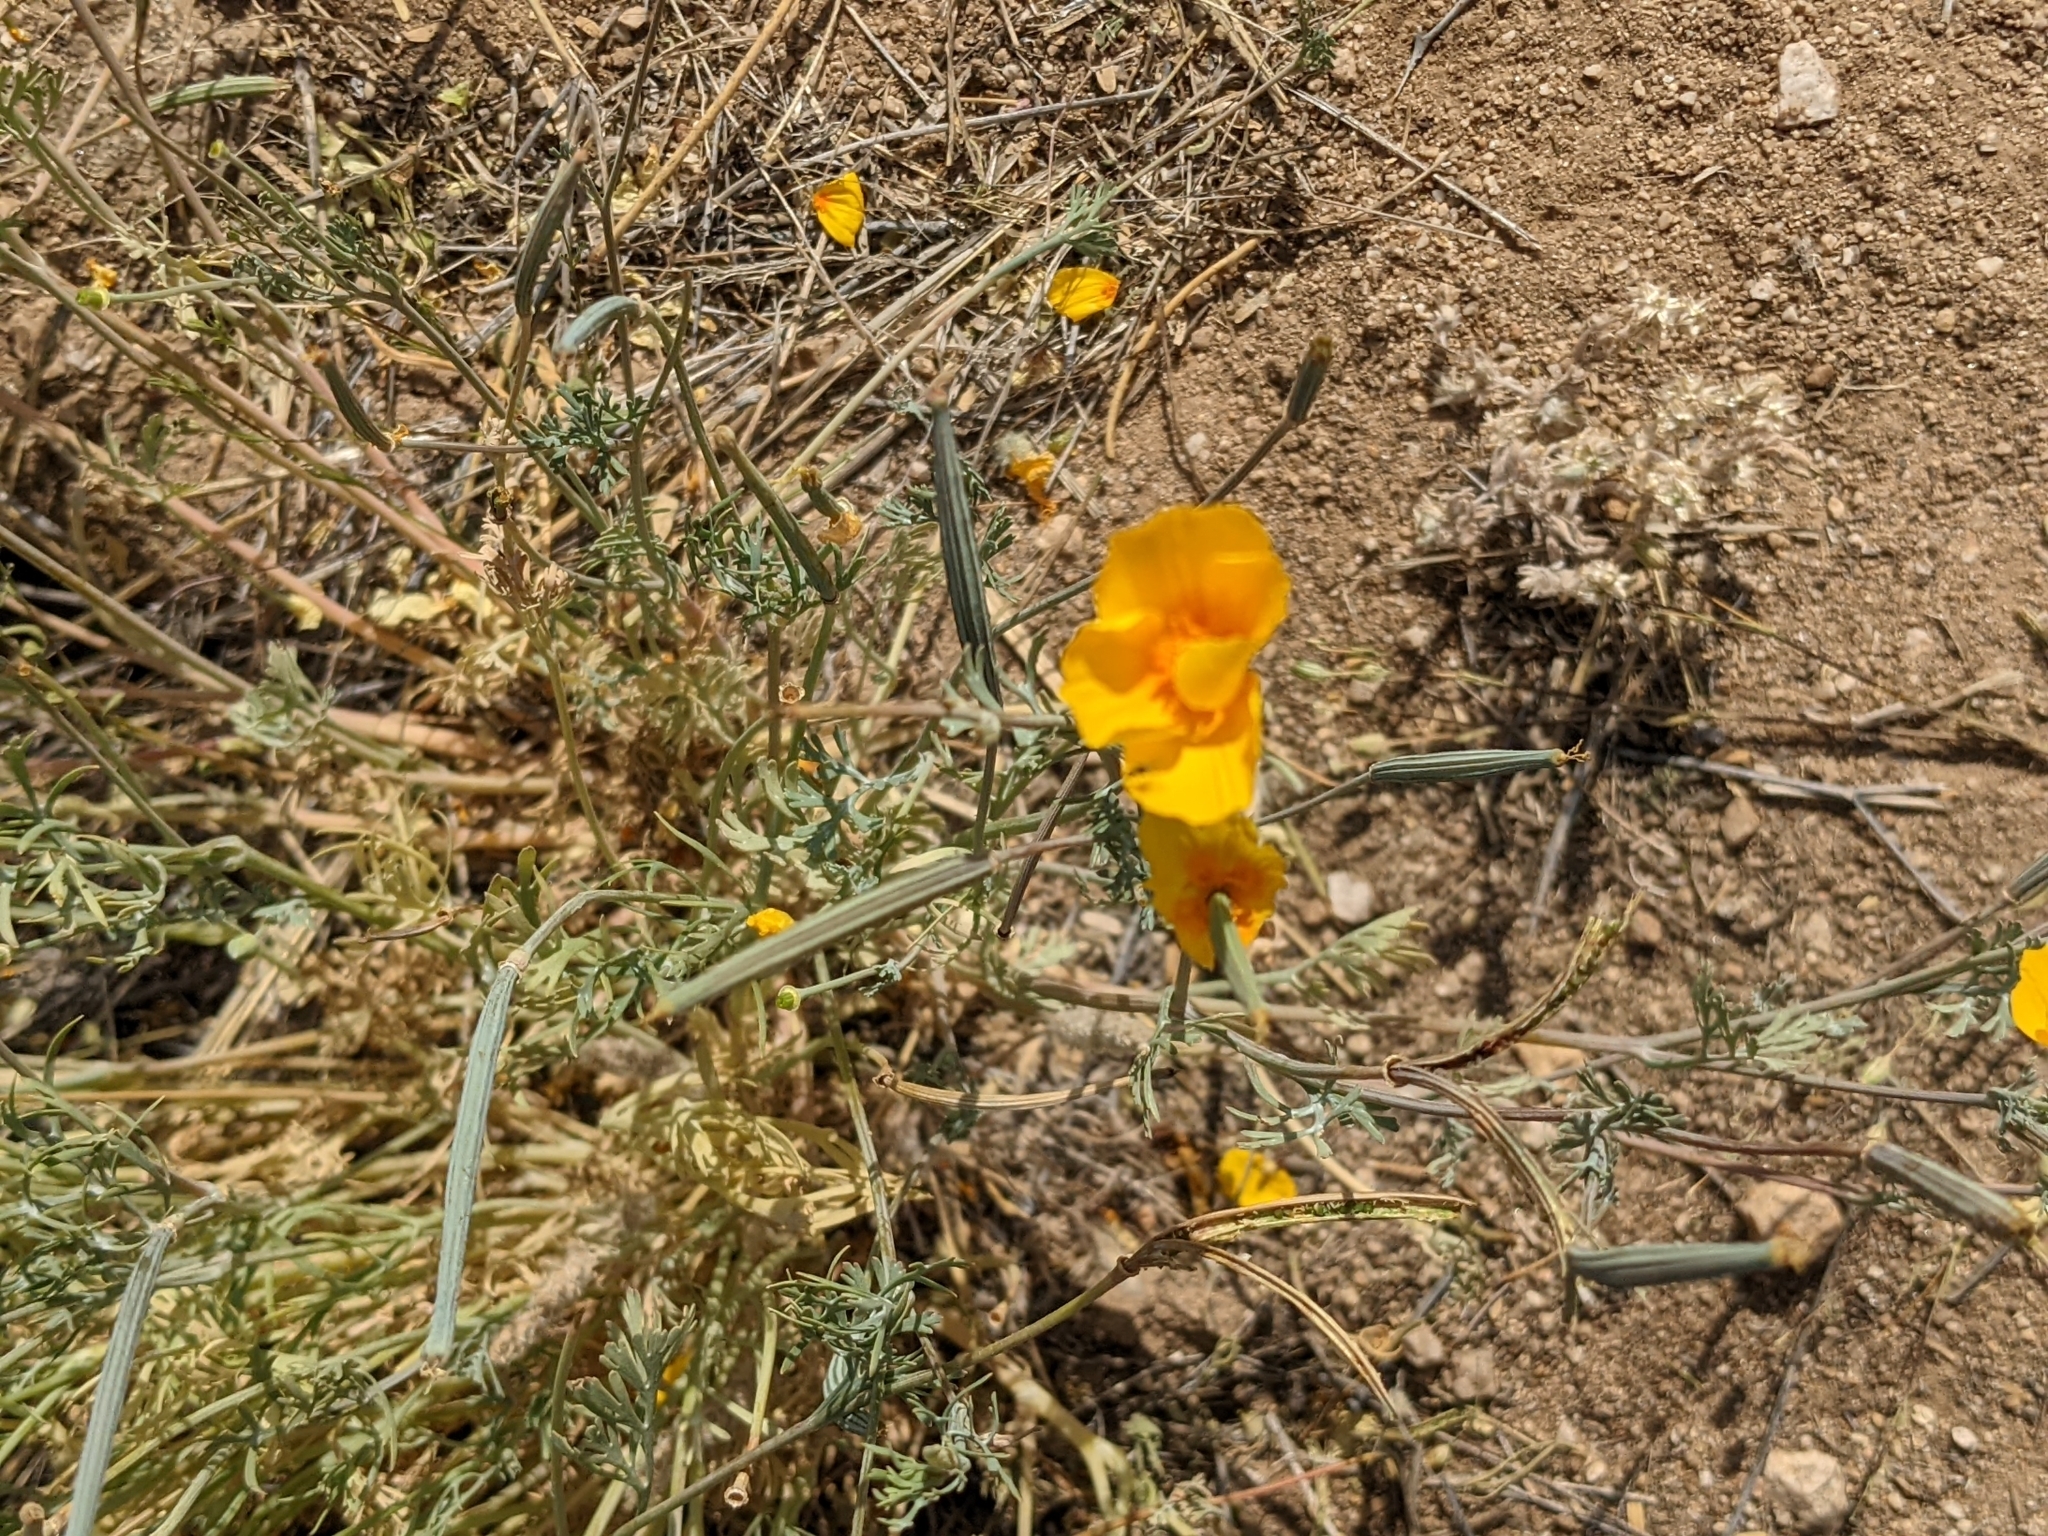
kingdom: Plantae
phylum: Tracheophyta
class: Magnoliopsida
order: Ranunculales
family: Papaveraceae
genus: Eschscholzia
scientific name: Eschscholzia californica
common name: California poppy
